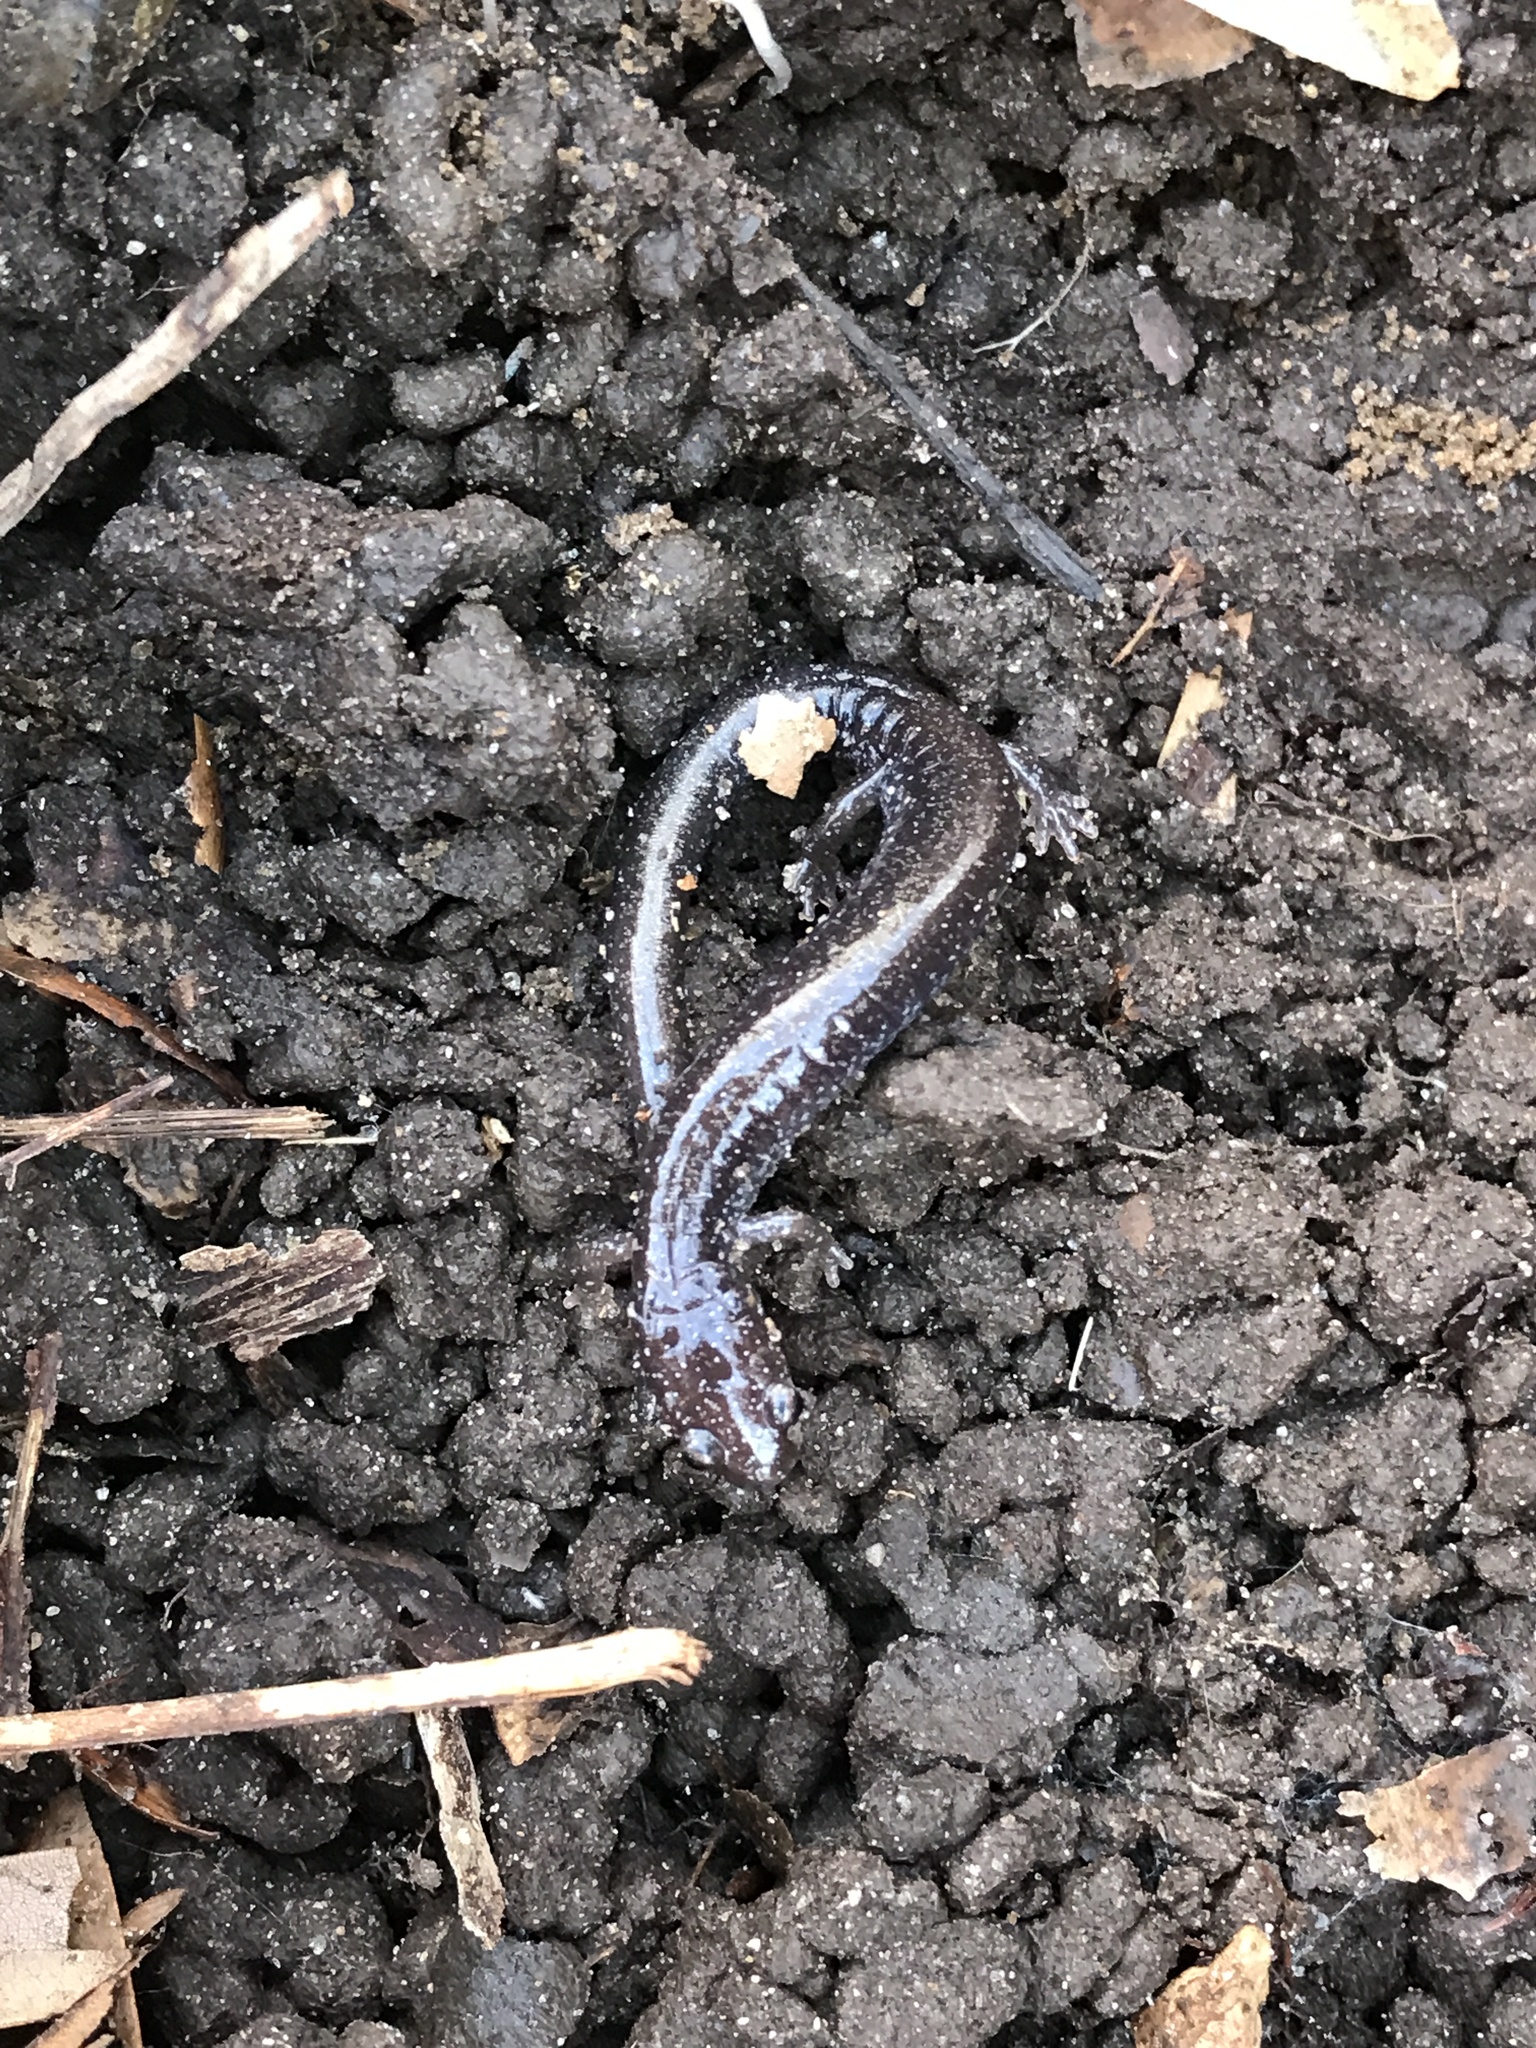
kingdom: Animalia
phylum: Chordata
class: Amphibia
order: Caudata
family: Plethodontidae
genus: Plethodon
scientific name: Plethodon cinereus
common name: Redback salamander
